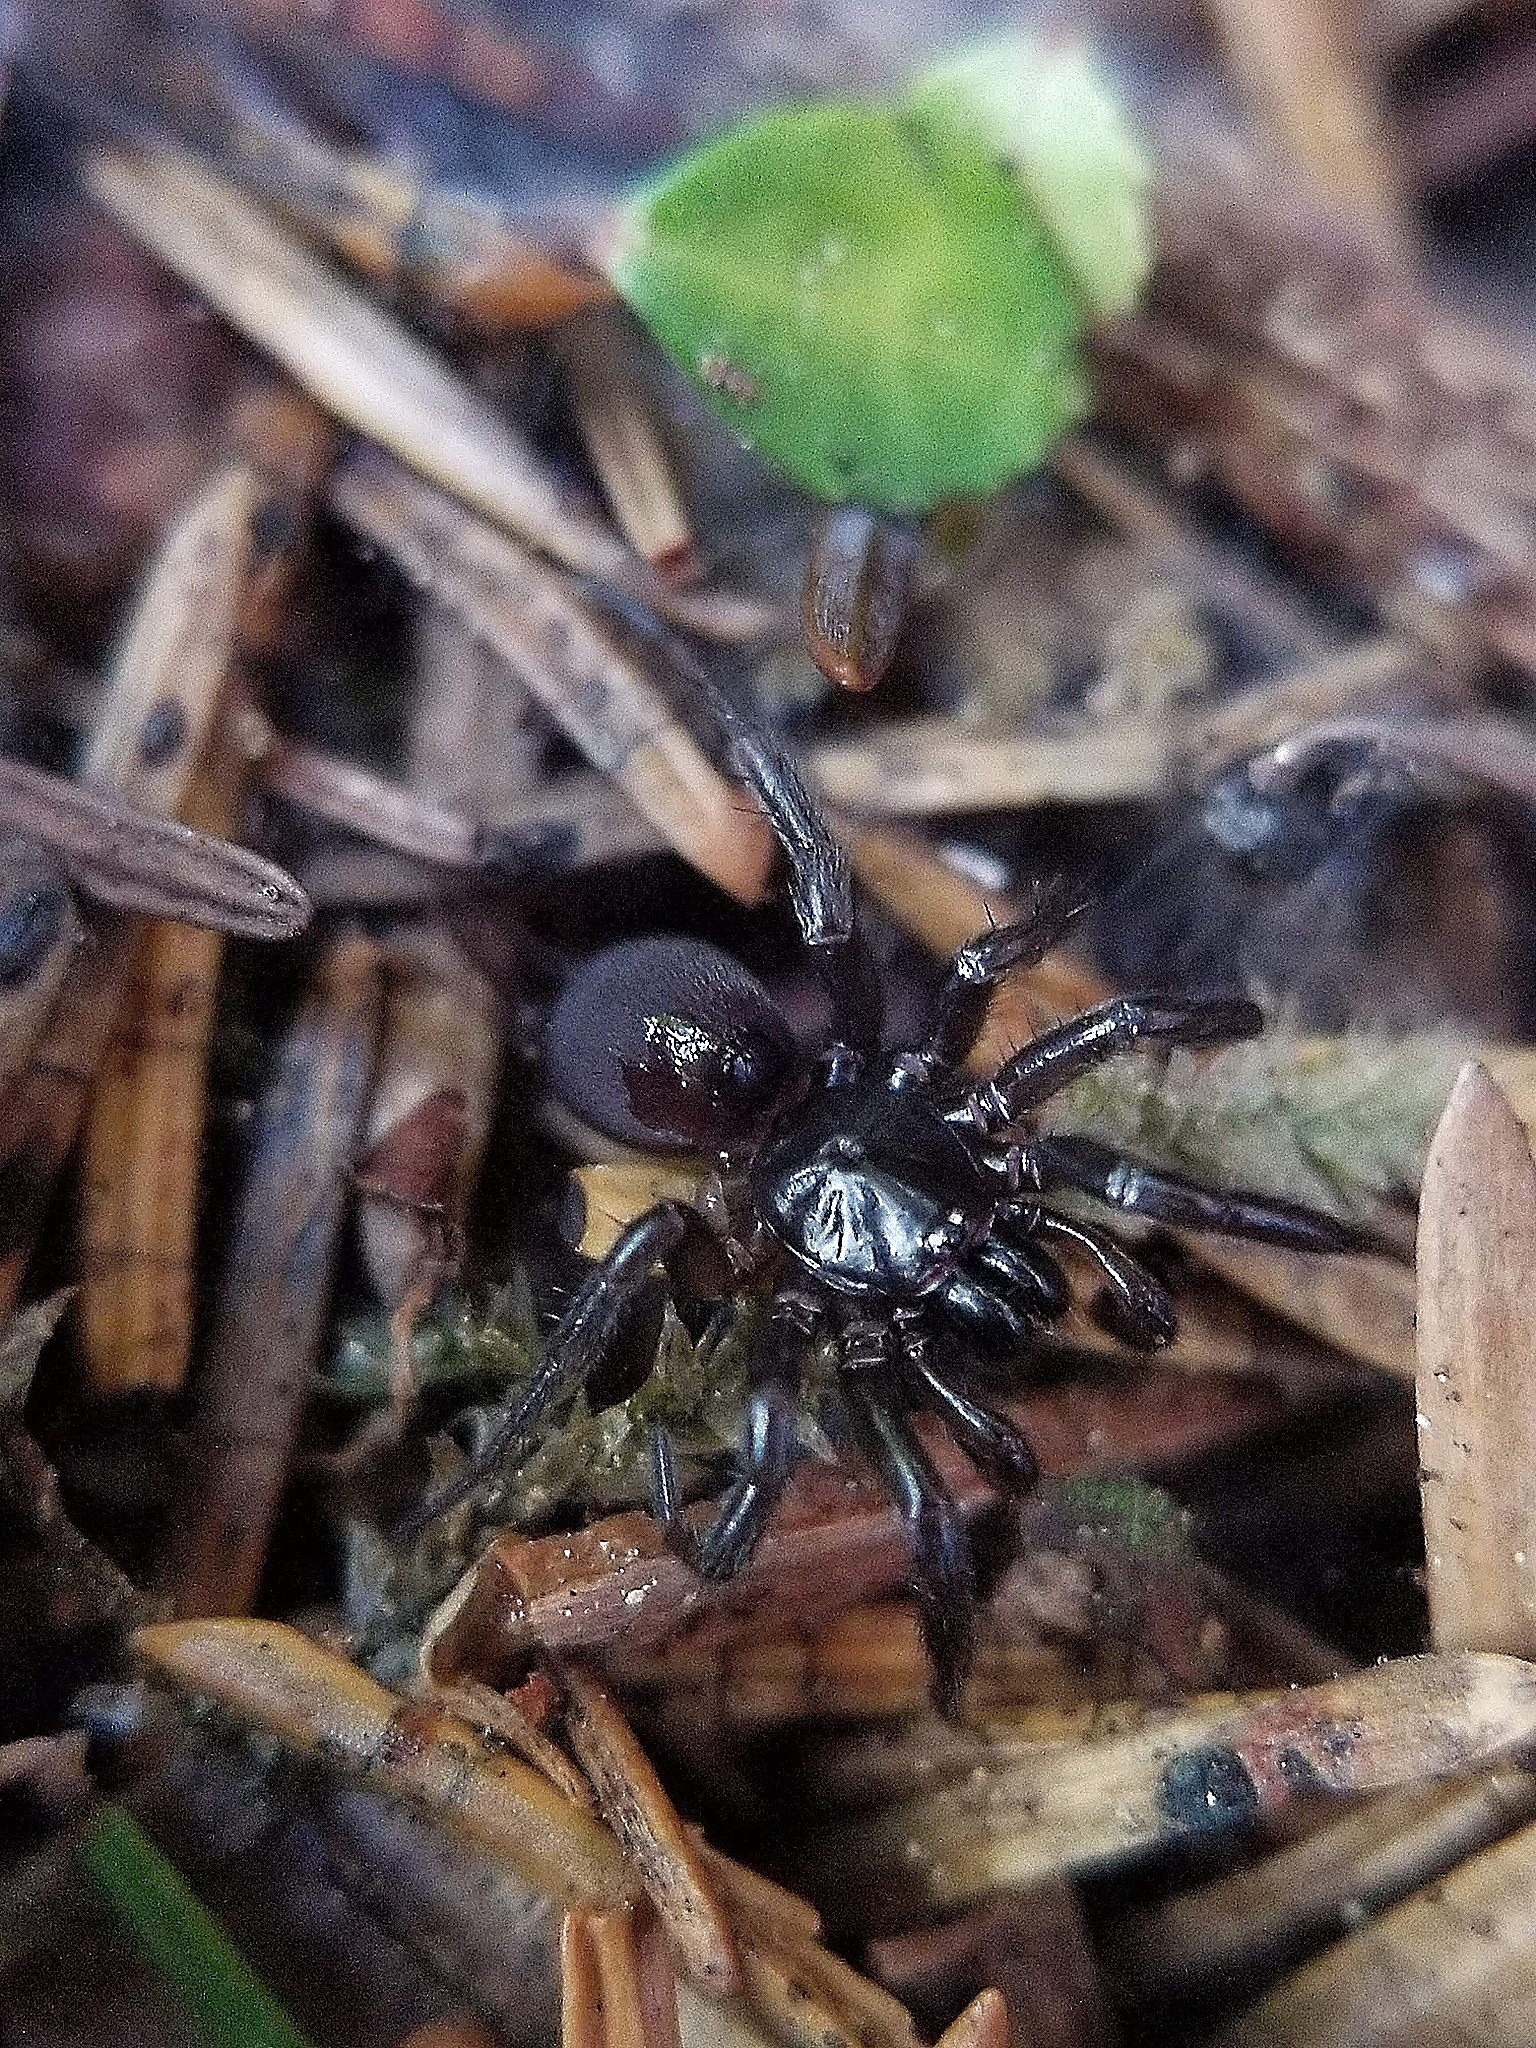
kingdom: Animalia
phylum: Arthropoda
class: Arachnida
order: Araneae
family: Antrodiaetidae
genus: Hexura
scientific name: Hexura picea
